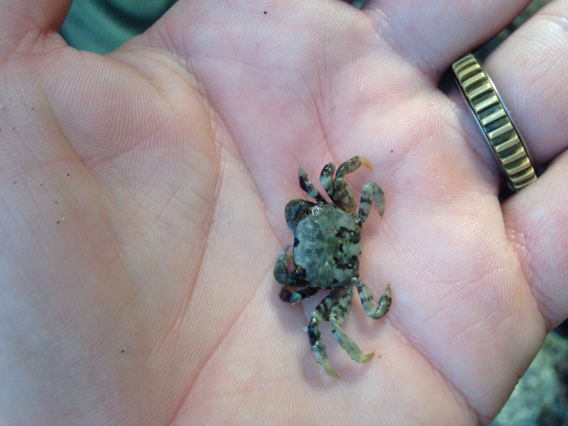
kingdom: Animalia
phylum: Arthropoda
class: Malacostraca
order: Decapoda
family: Varunidae
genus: Hemigrapsus
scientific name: Hemigrapsus nudus
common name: Purple shore crab
